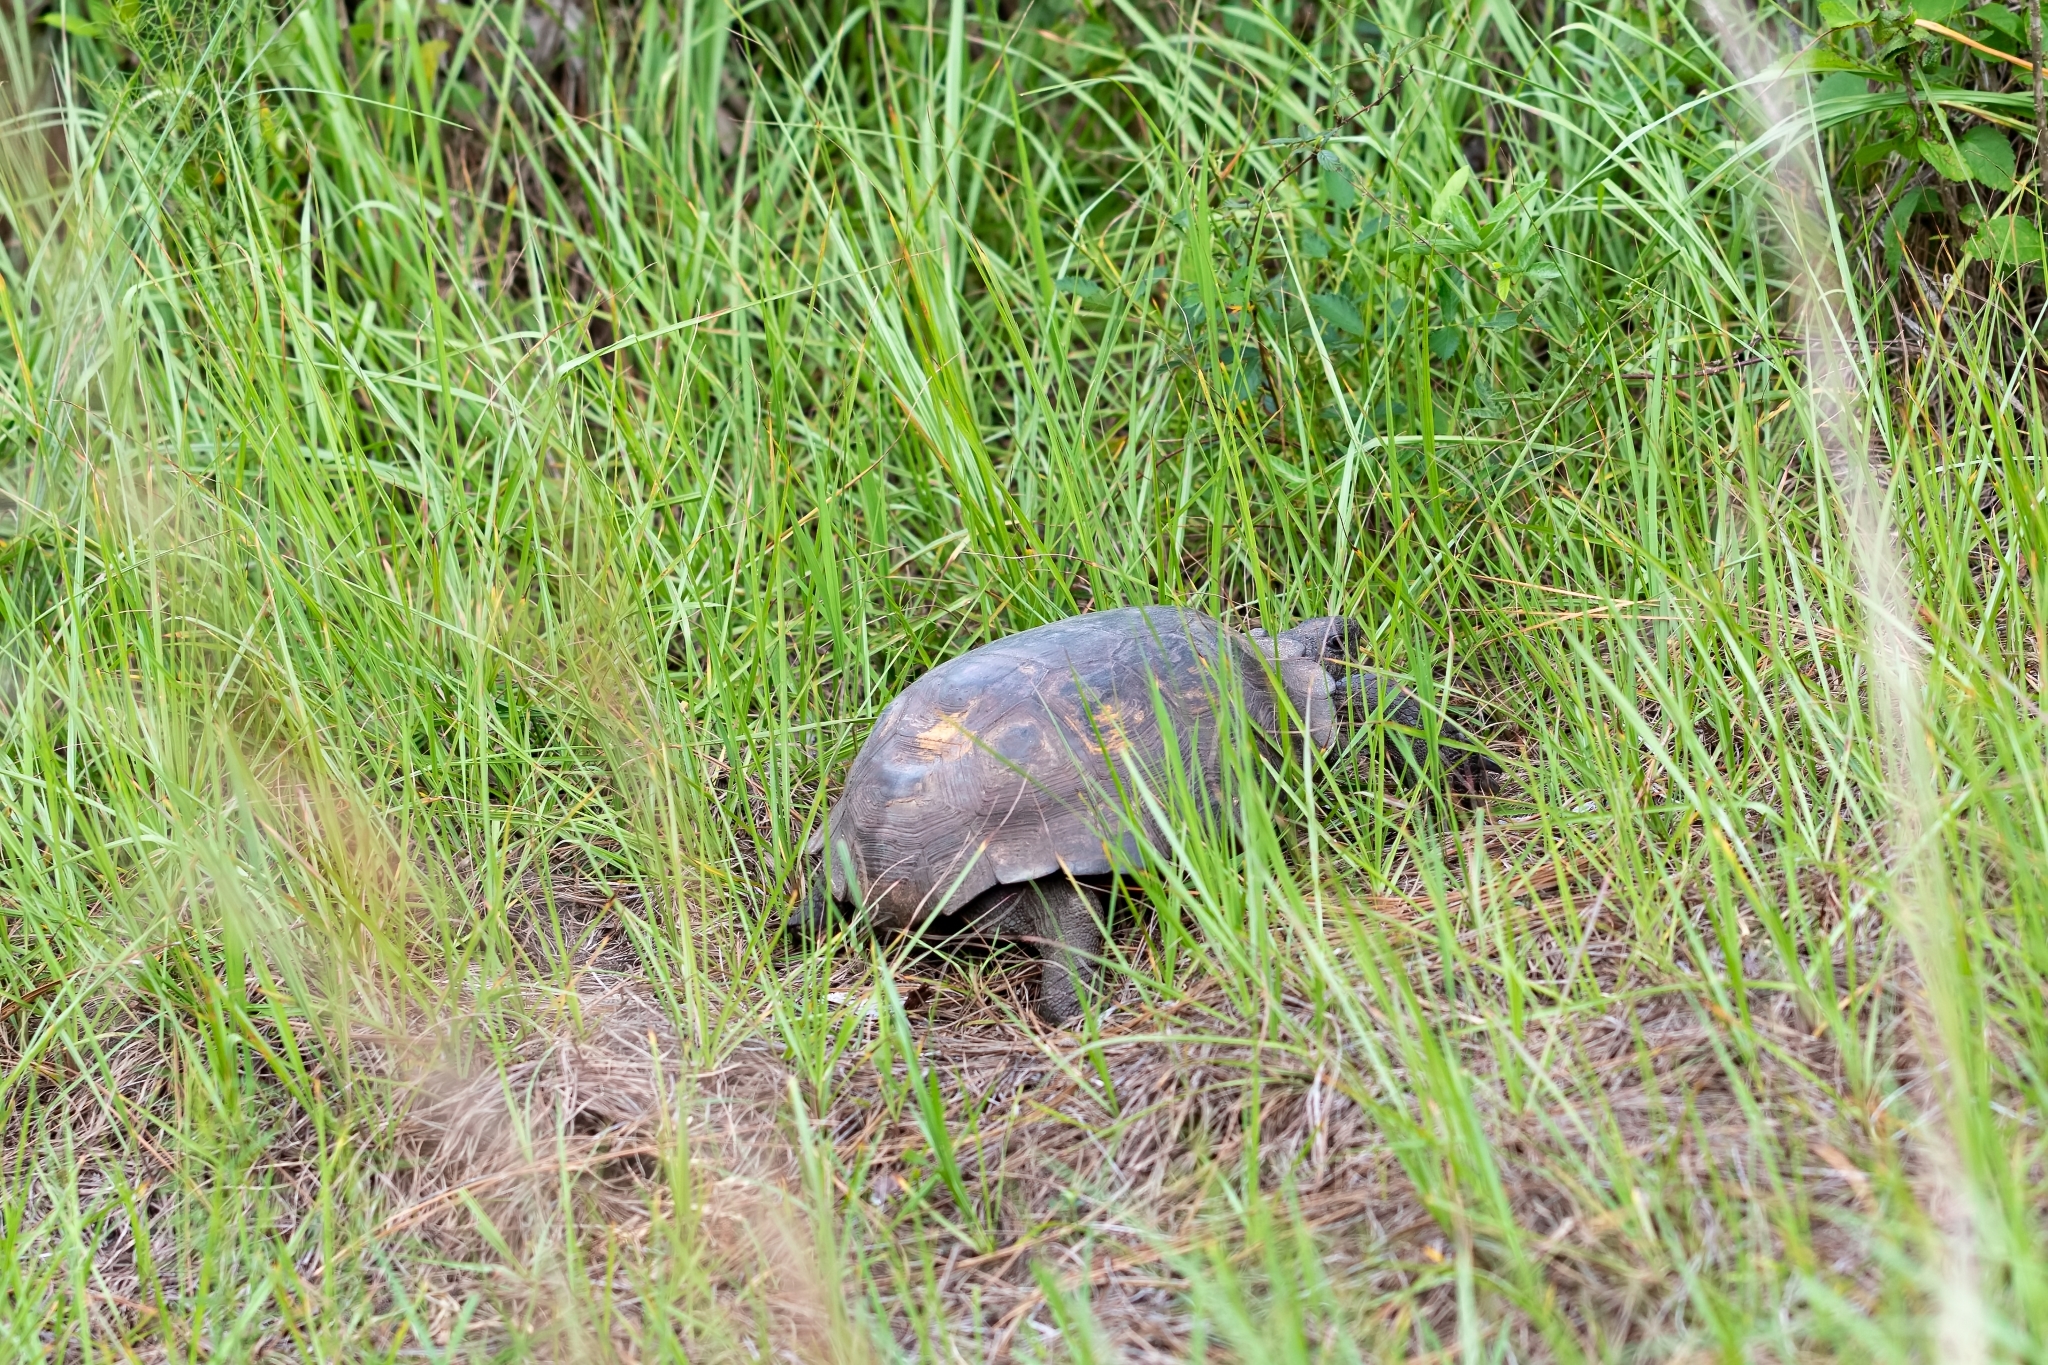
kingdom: Animalia
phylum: Chordata
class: Testudines
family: Testudinidae
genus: Gopherus
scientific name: Gopherus polyphemus
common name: Florida gopher tortoise
